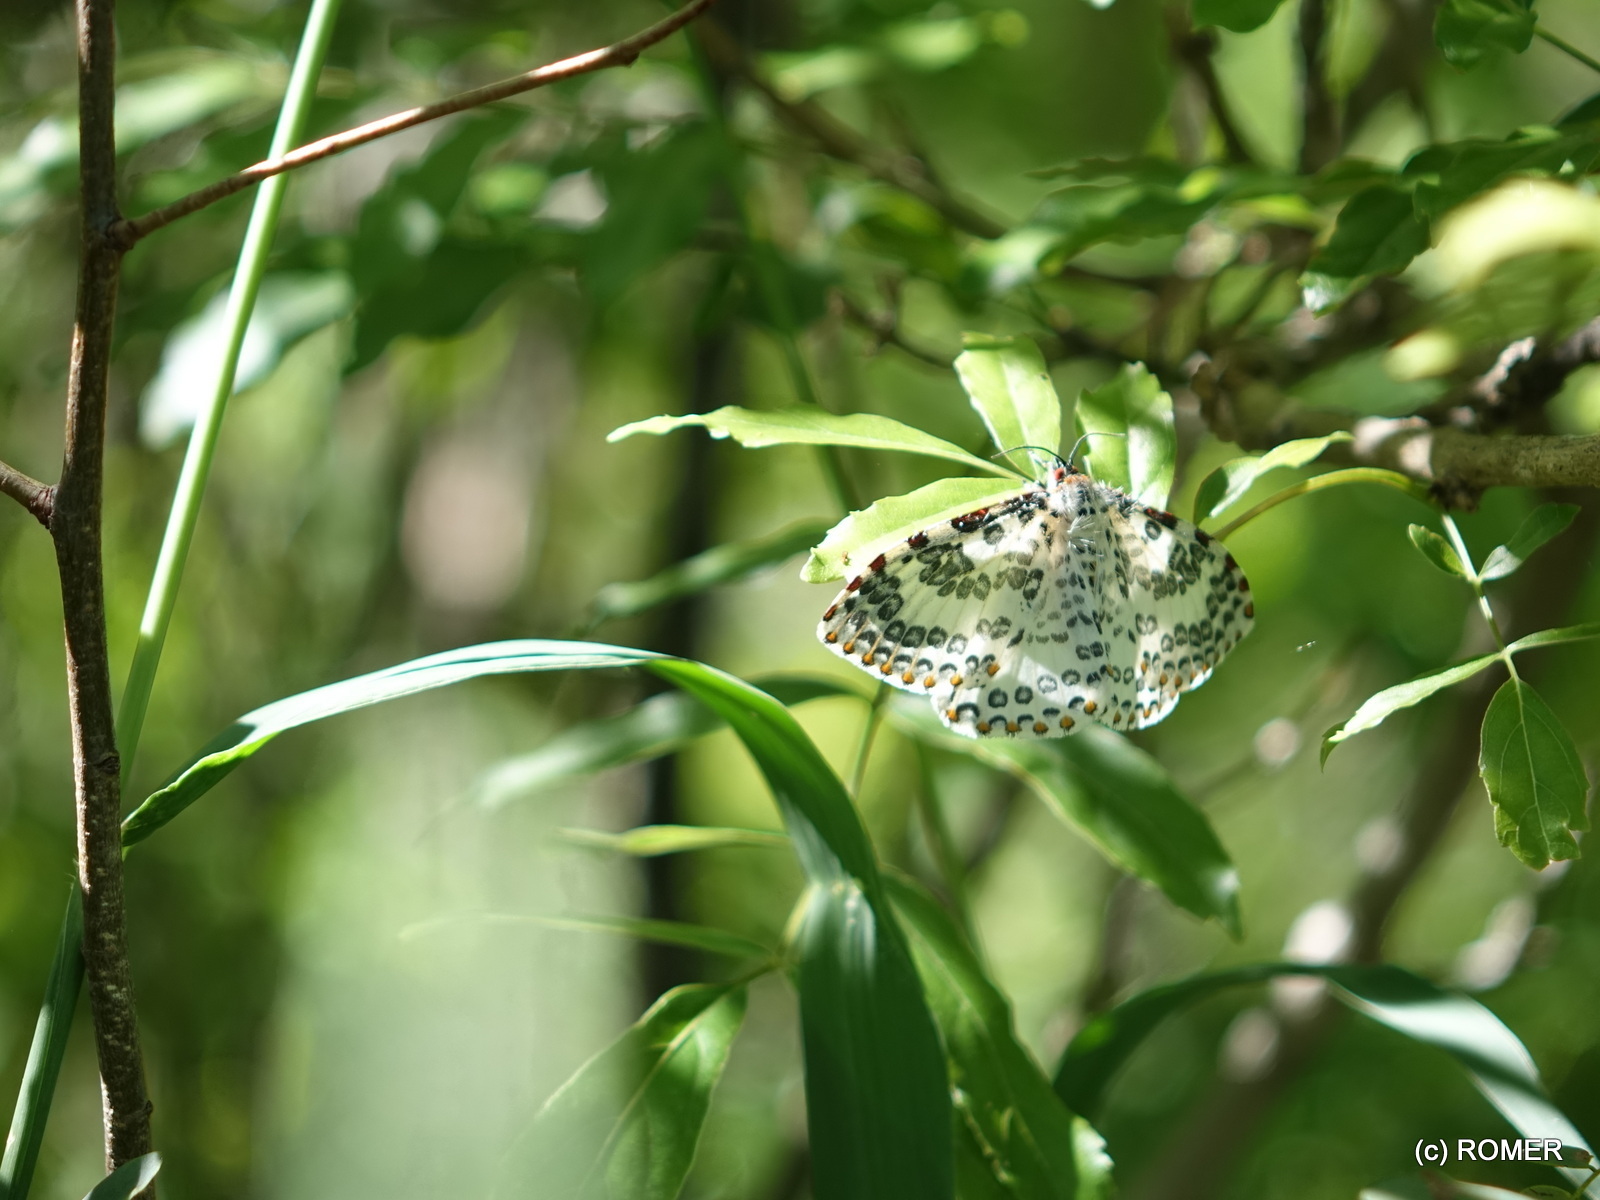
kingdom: Animalia
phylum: Arthropoda
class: Insecta
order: Lepidoptera
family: Callidulidae
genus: Caloschemia
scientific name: Caloschemia monolifera
